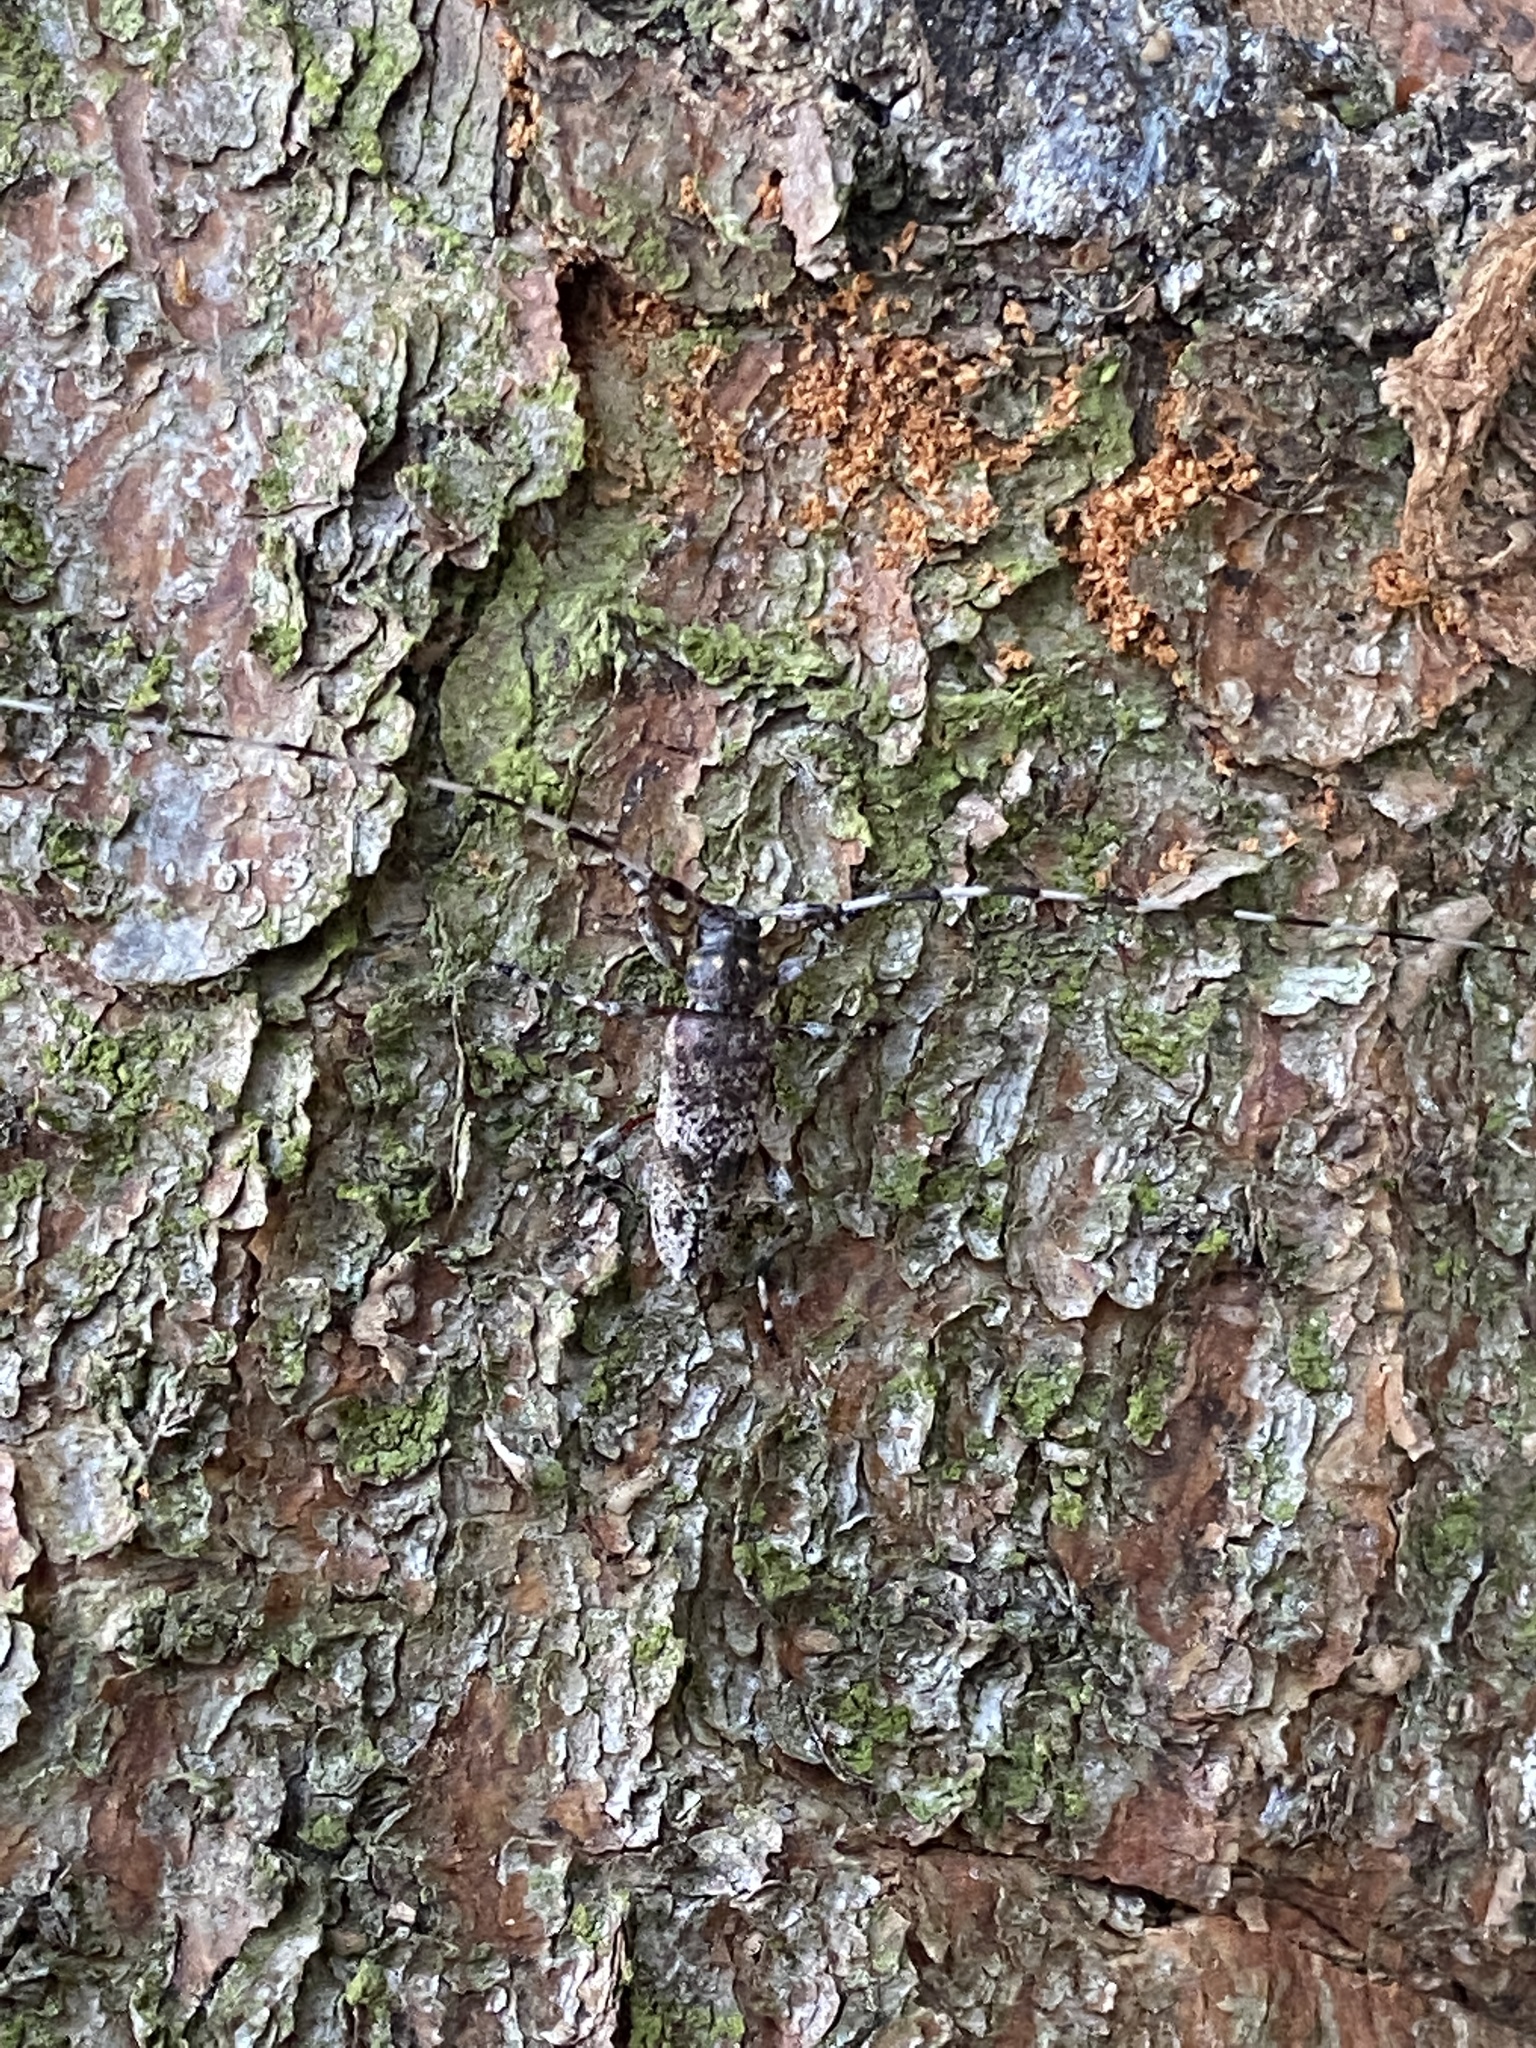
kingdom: Animalia
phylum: Arthropoda
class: Insecta
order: Coleoptera
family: Cerambycidae
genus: Acanthocinus
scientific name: Acanthocinus griseus
